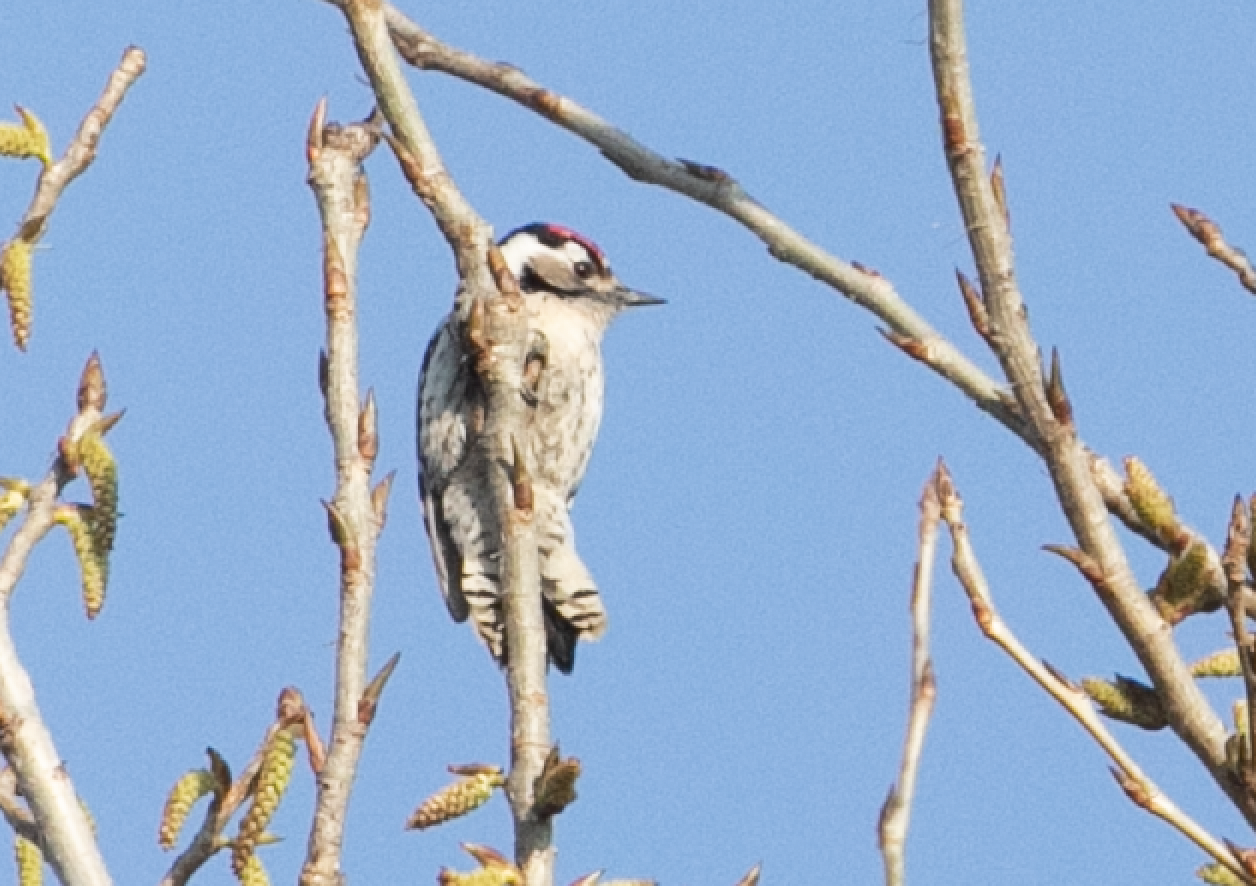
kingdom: Animalia
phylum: Chordata
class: Aves
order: Piciformes
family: Picidae
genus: Dryobates
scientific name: Dryobates minor
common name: Lesser spotted woodpecker
